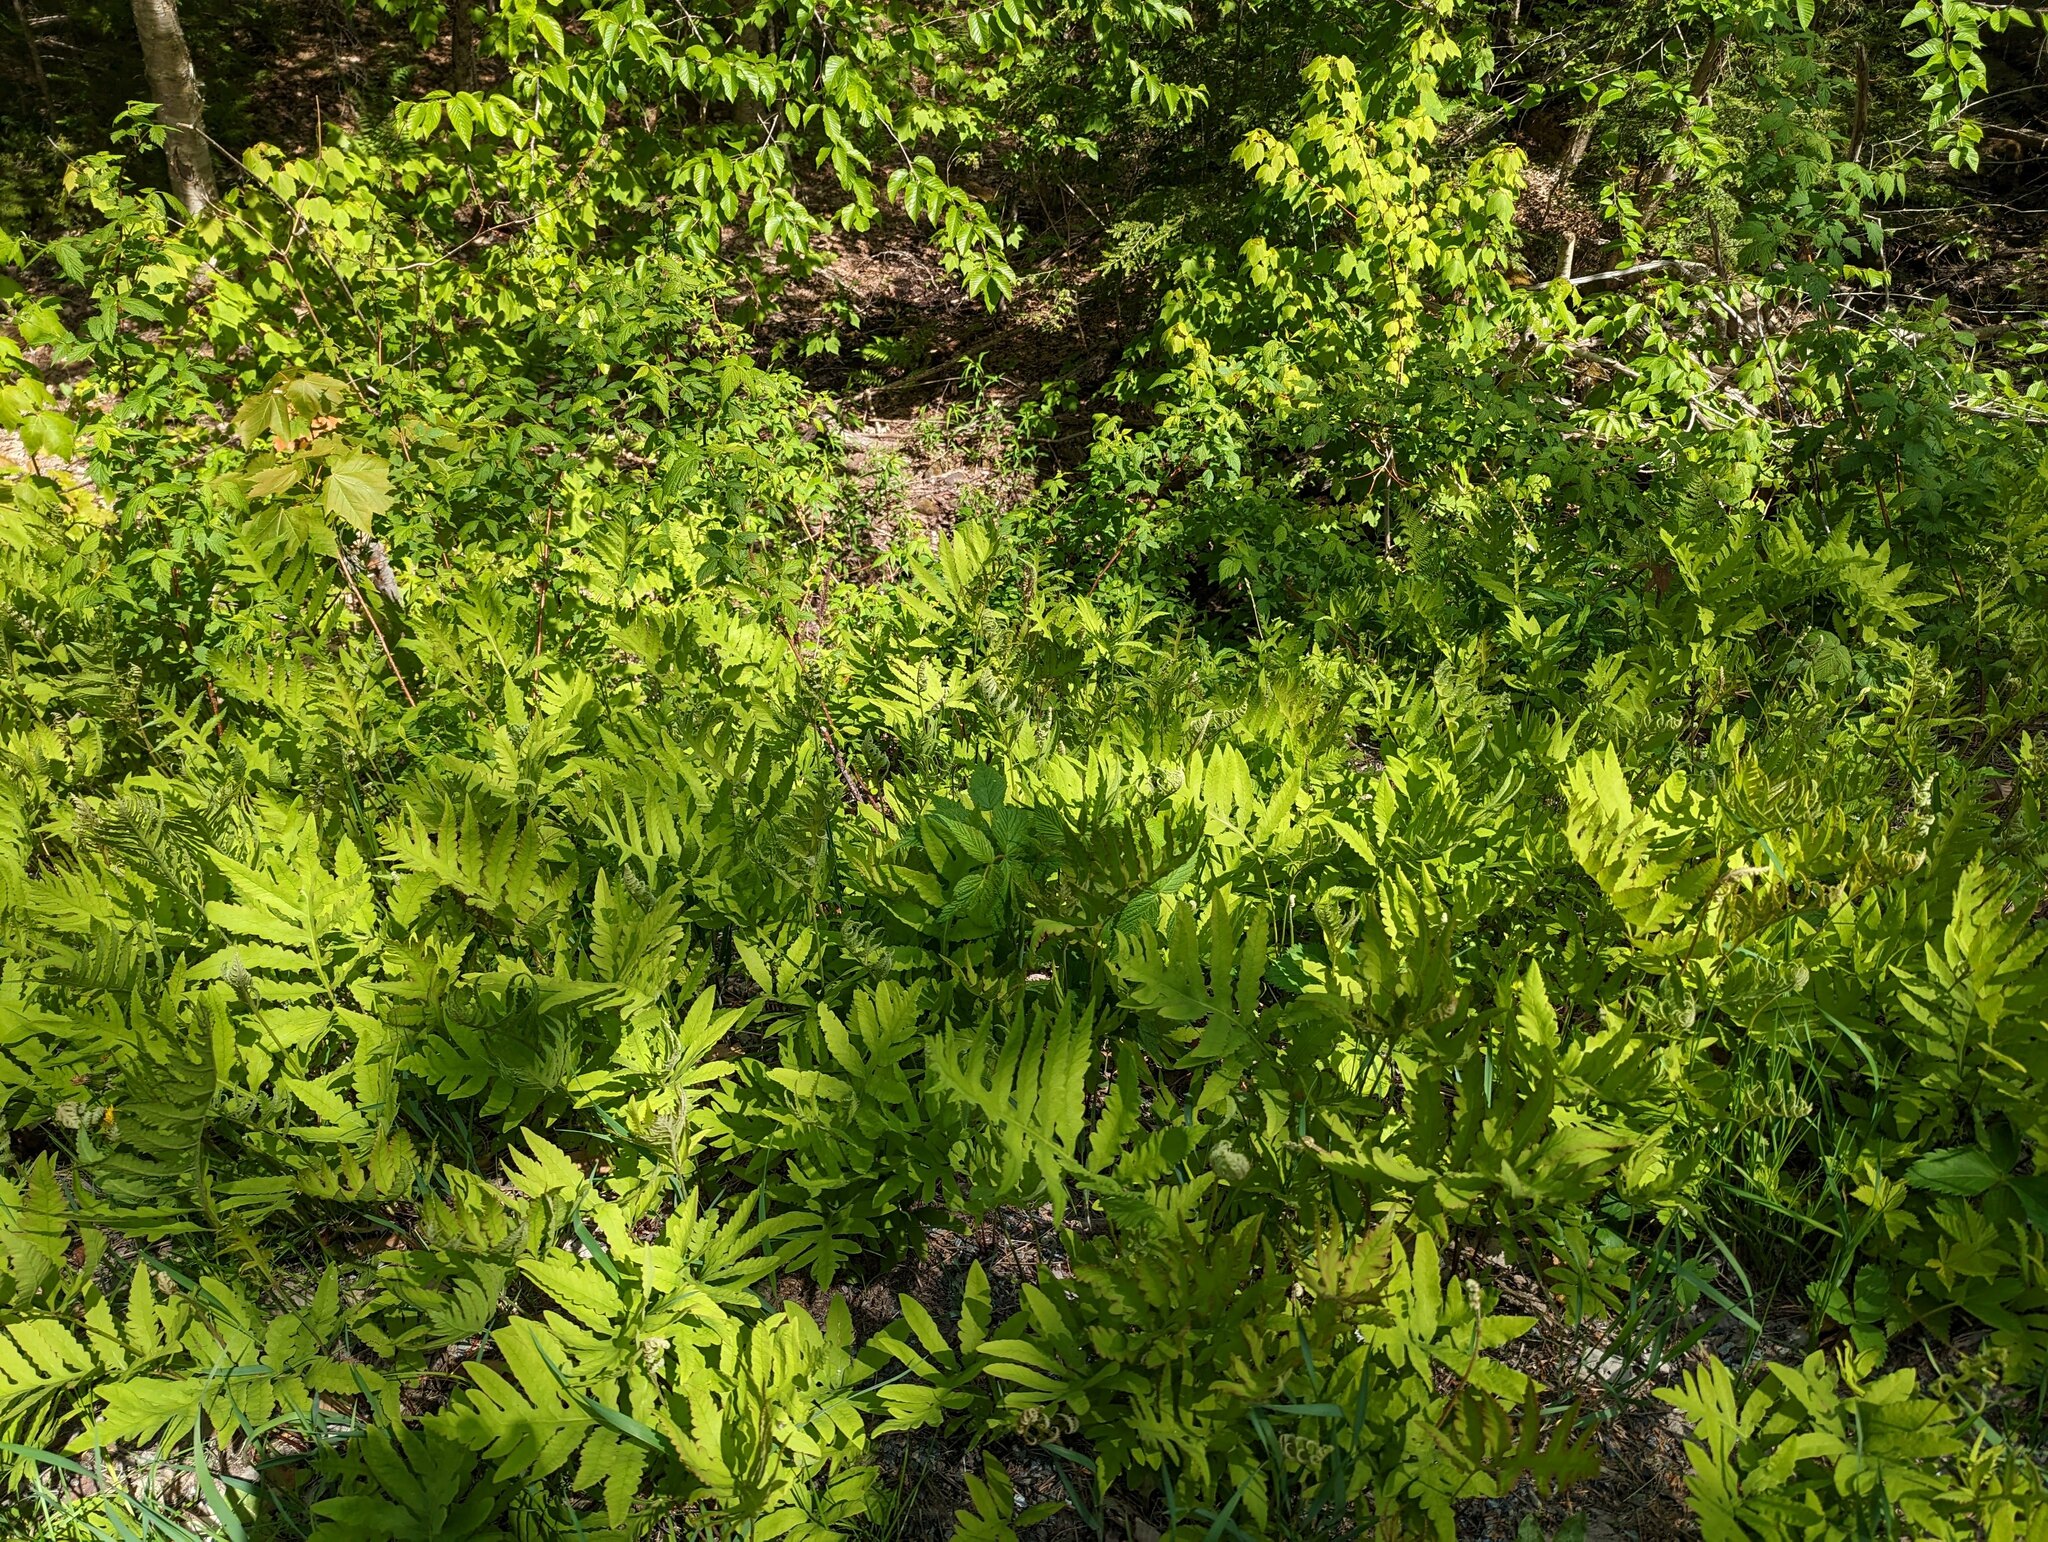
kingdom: Plantae
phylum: Tracheophyta
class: Polypodiopsida
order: Polypodiales
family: Onocleaceae
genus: Onoclea
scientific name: Onoclea sensibilis
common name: Sensitive fern
